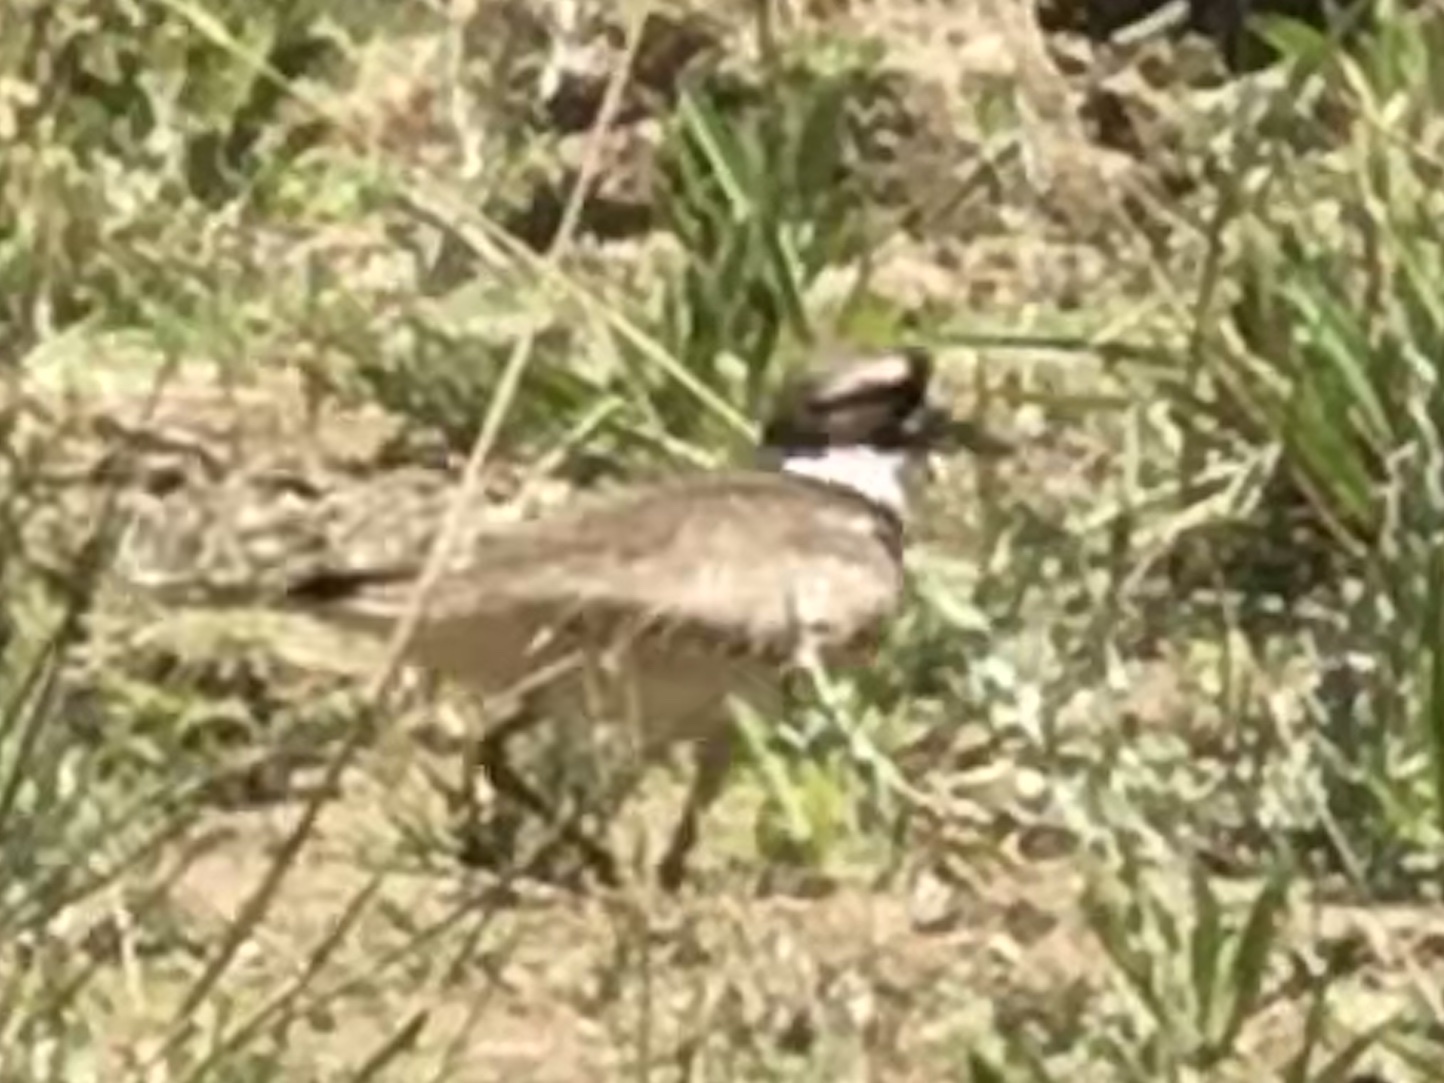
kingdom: Animalia
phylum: Chordata
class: Aves
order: Charadriiformes
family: Charadriidae
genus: Charadrius
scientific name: Charadrius vociferus
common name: Killdeer
